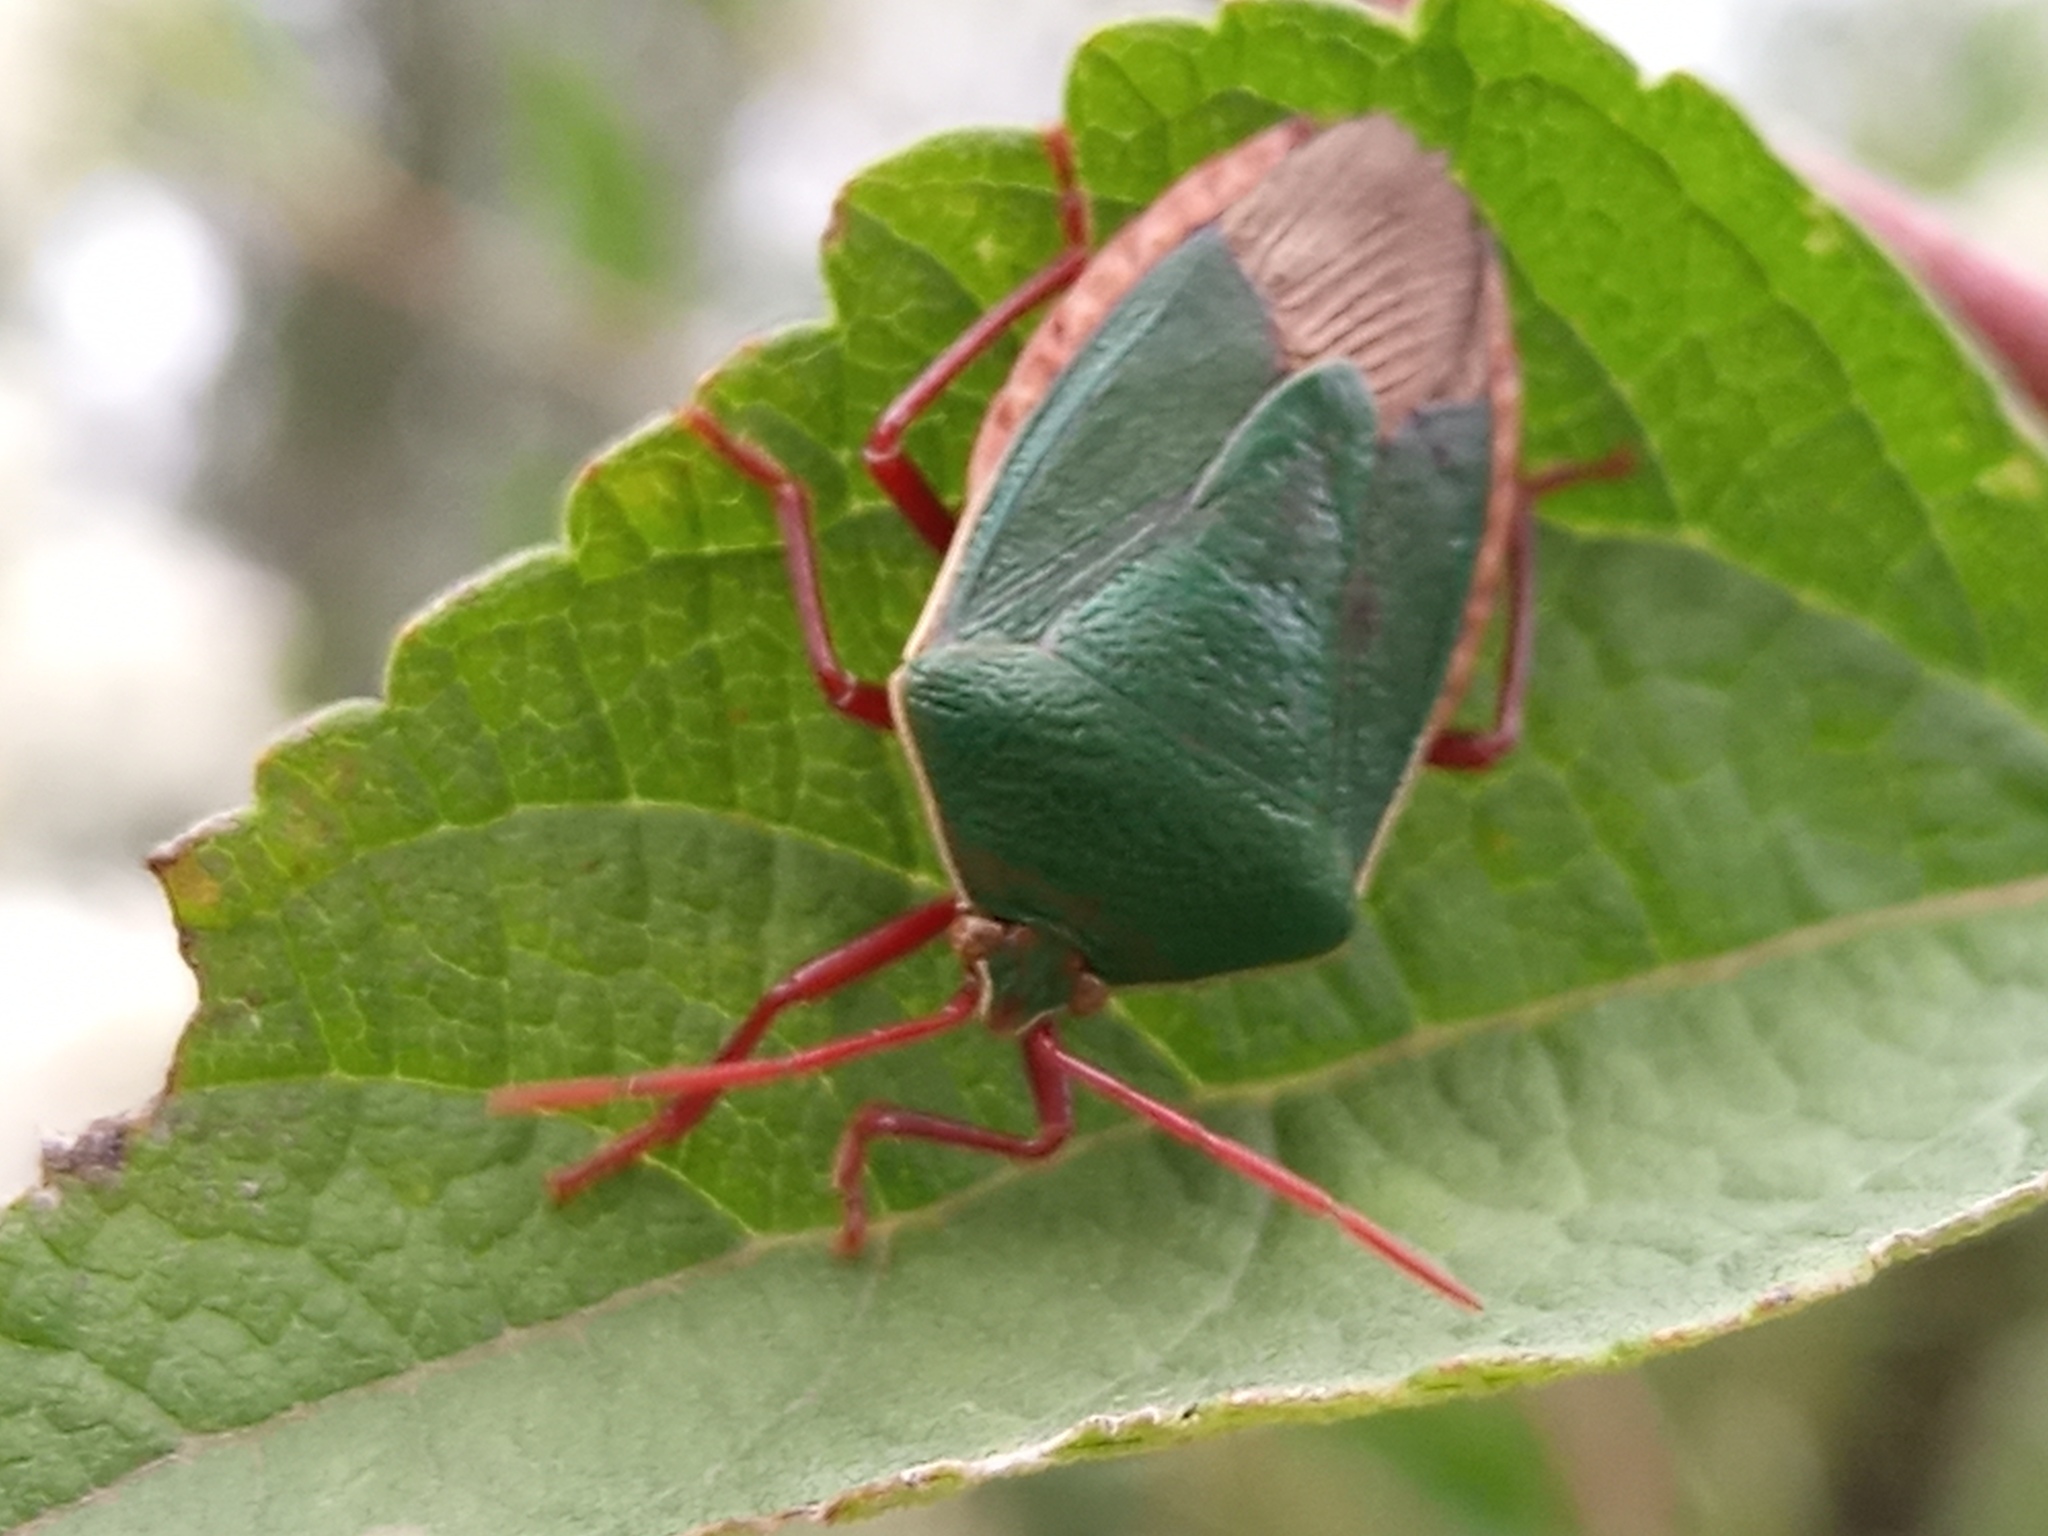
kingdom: Animalia
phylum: Arthropoda
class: Insecta
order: Hemiptera
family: Pentatomidae
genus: Edessa
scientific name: Edessa
